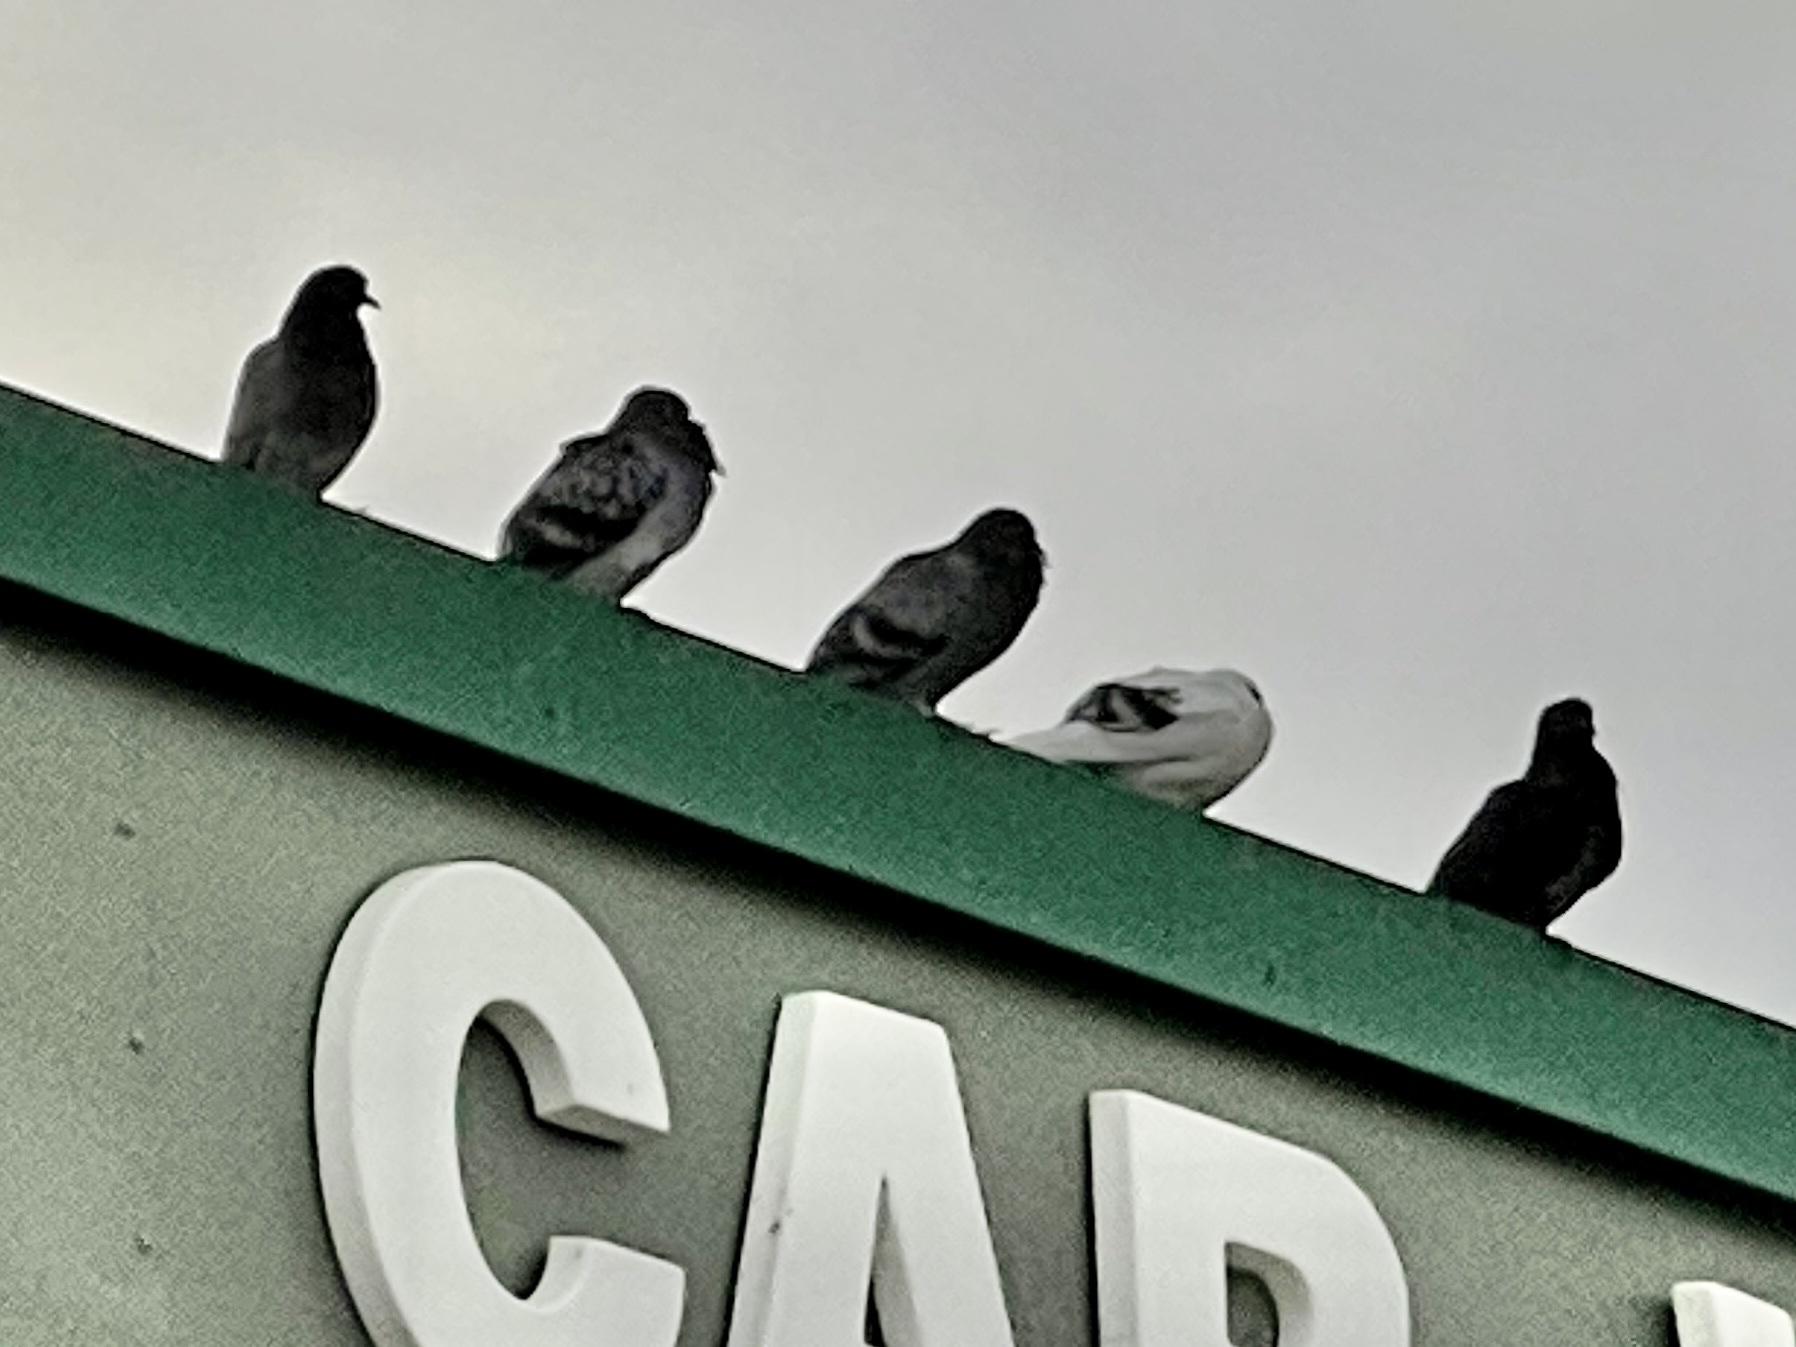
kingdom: Animalia
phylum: Chordata
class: Aves
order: Columbiformes
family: Columbidae
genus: Columba
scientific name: Columba livia
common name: Rock pigeon
